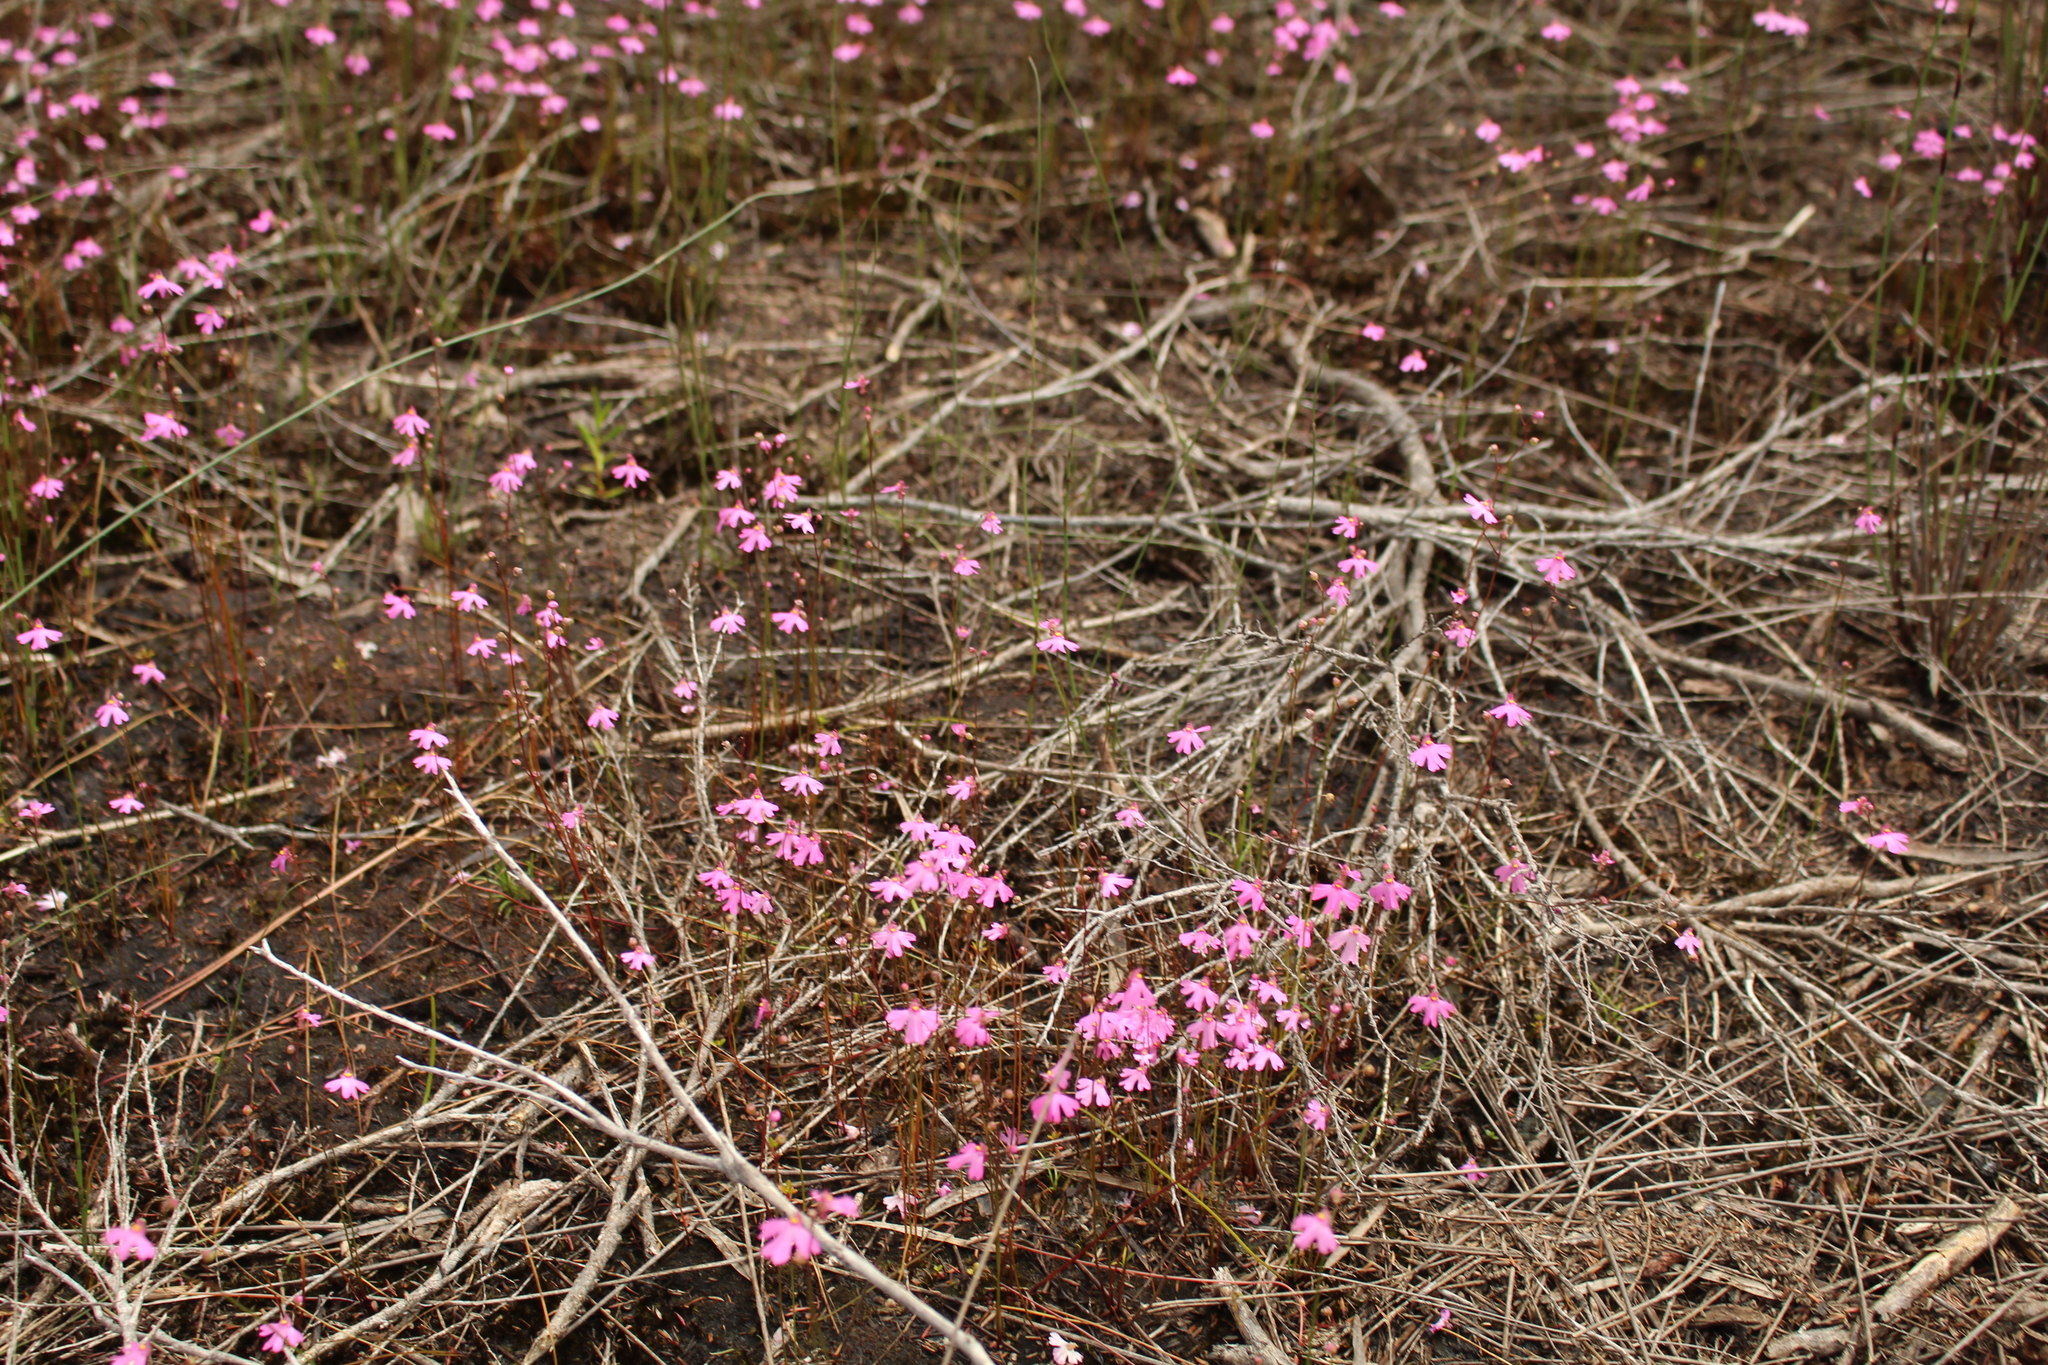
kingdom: Plantae
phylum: Tracheophyta
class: Magnoliopsida
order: Lamiales
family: Lentibulariaceae
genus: Utricularia
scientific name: Utricularia multifida
